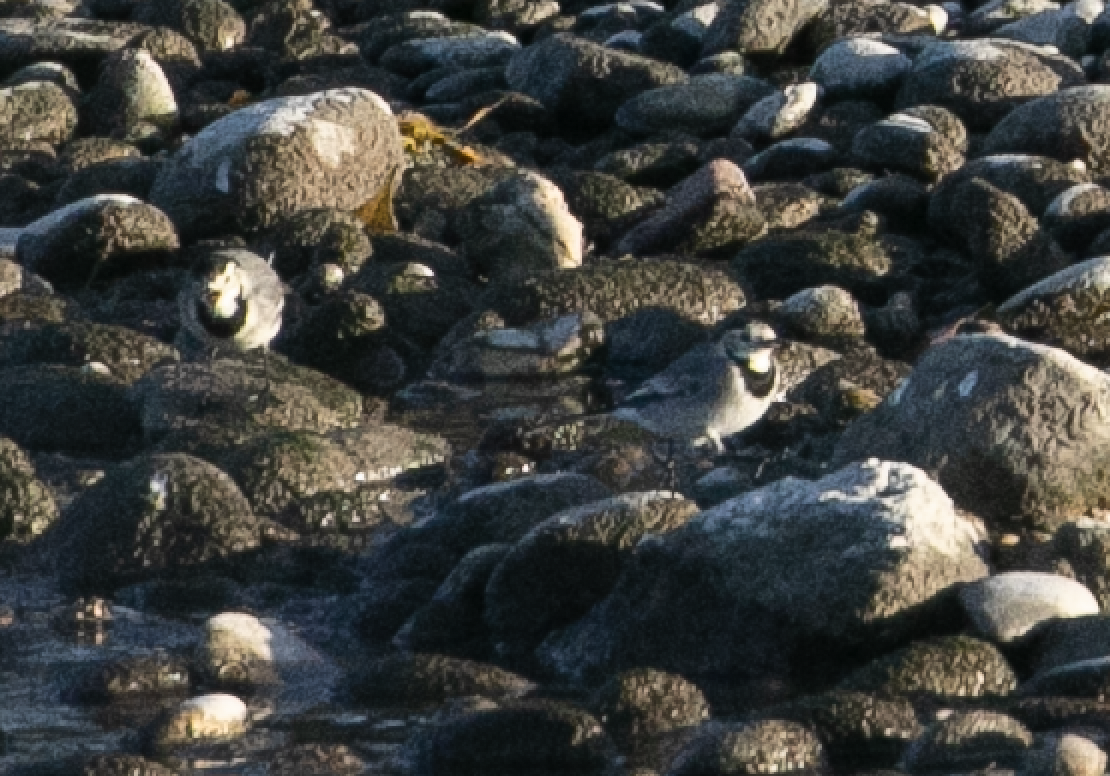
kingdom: Animalia
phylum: Chordata
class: Aves
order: Passeriformes
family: Motacillidae
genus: Motacilla
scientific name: Motacilla alba
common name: White wagtail
